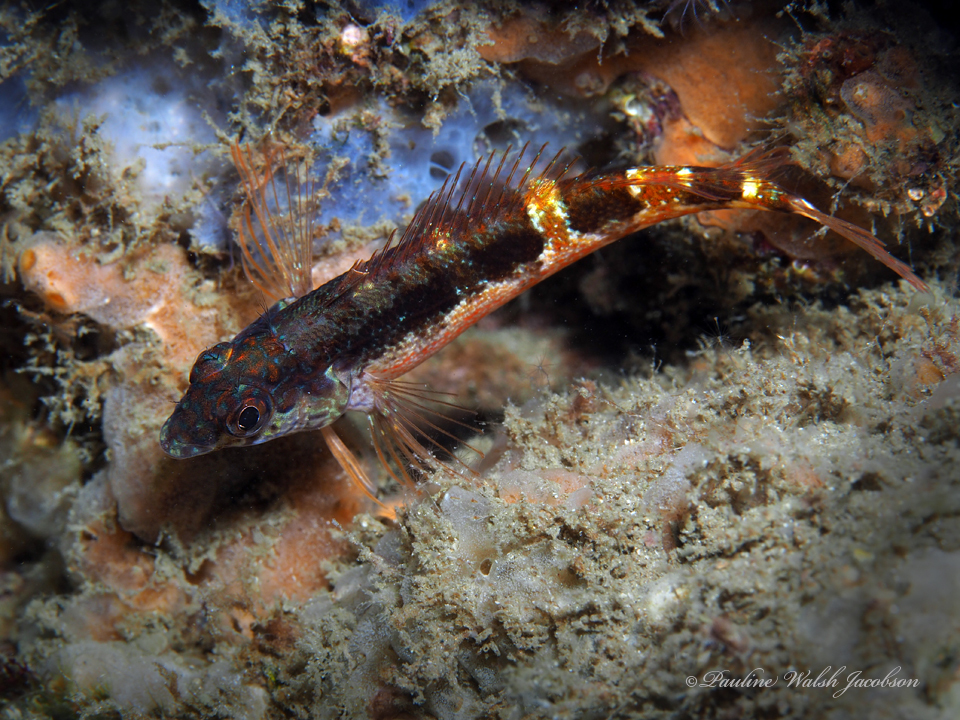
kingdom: Animalia
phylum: Chordata
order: Perciformes
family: Labrisomidae
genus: Malacoctenus
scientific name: Malacoctenus triangulatus
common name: Saddled blenny
